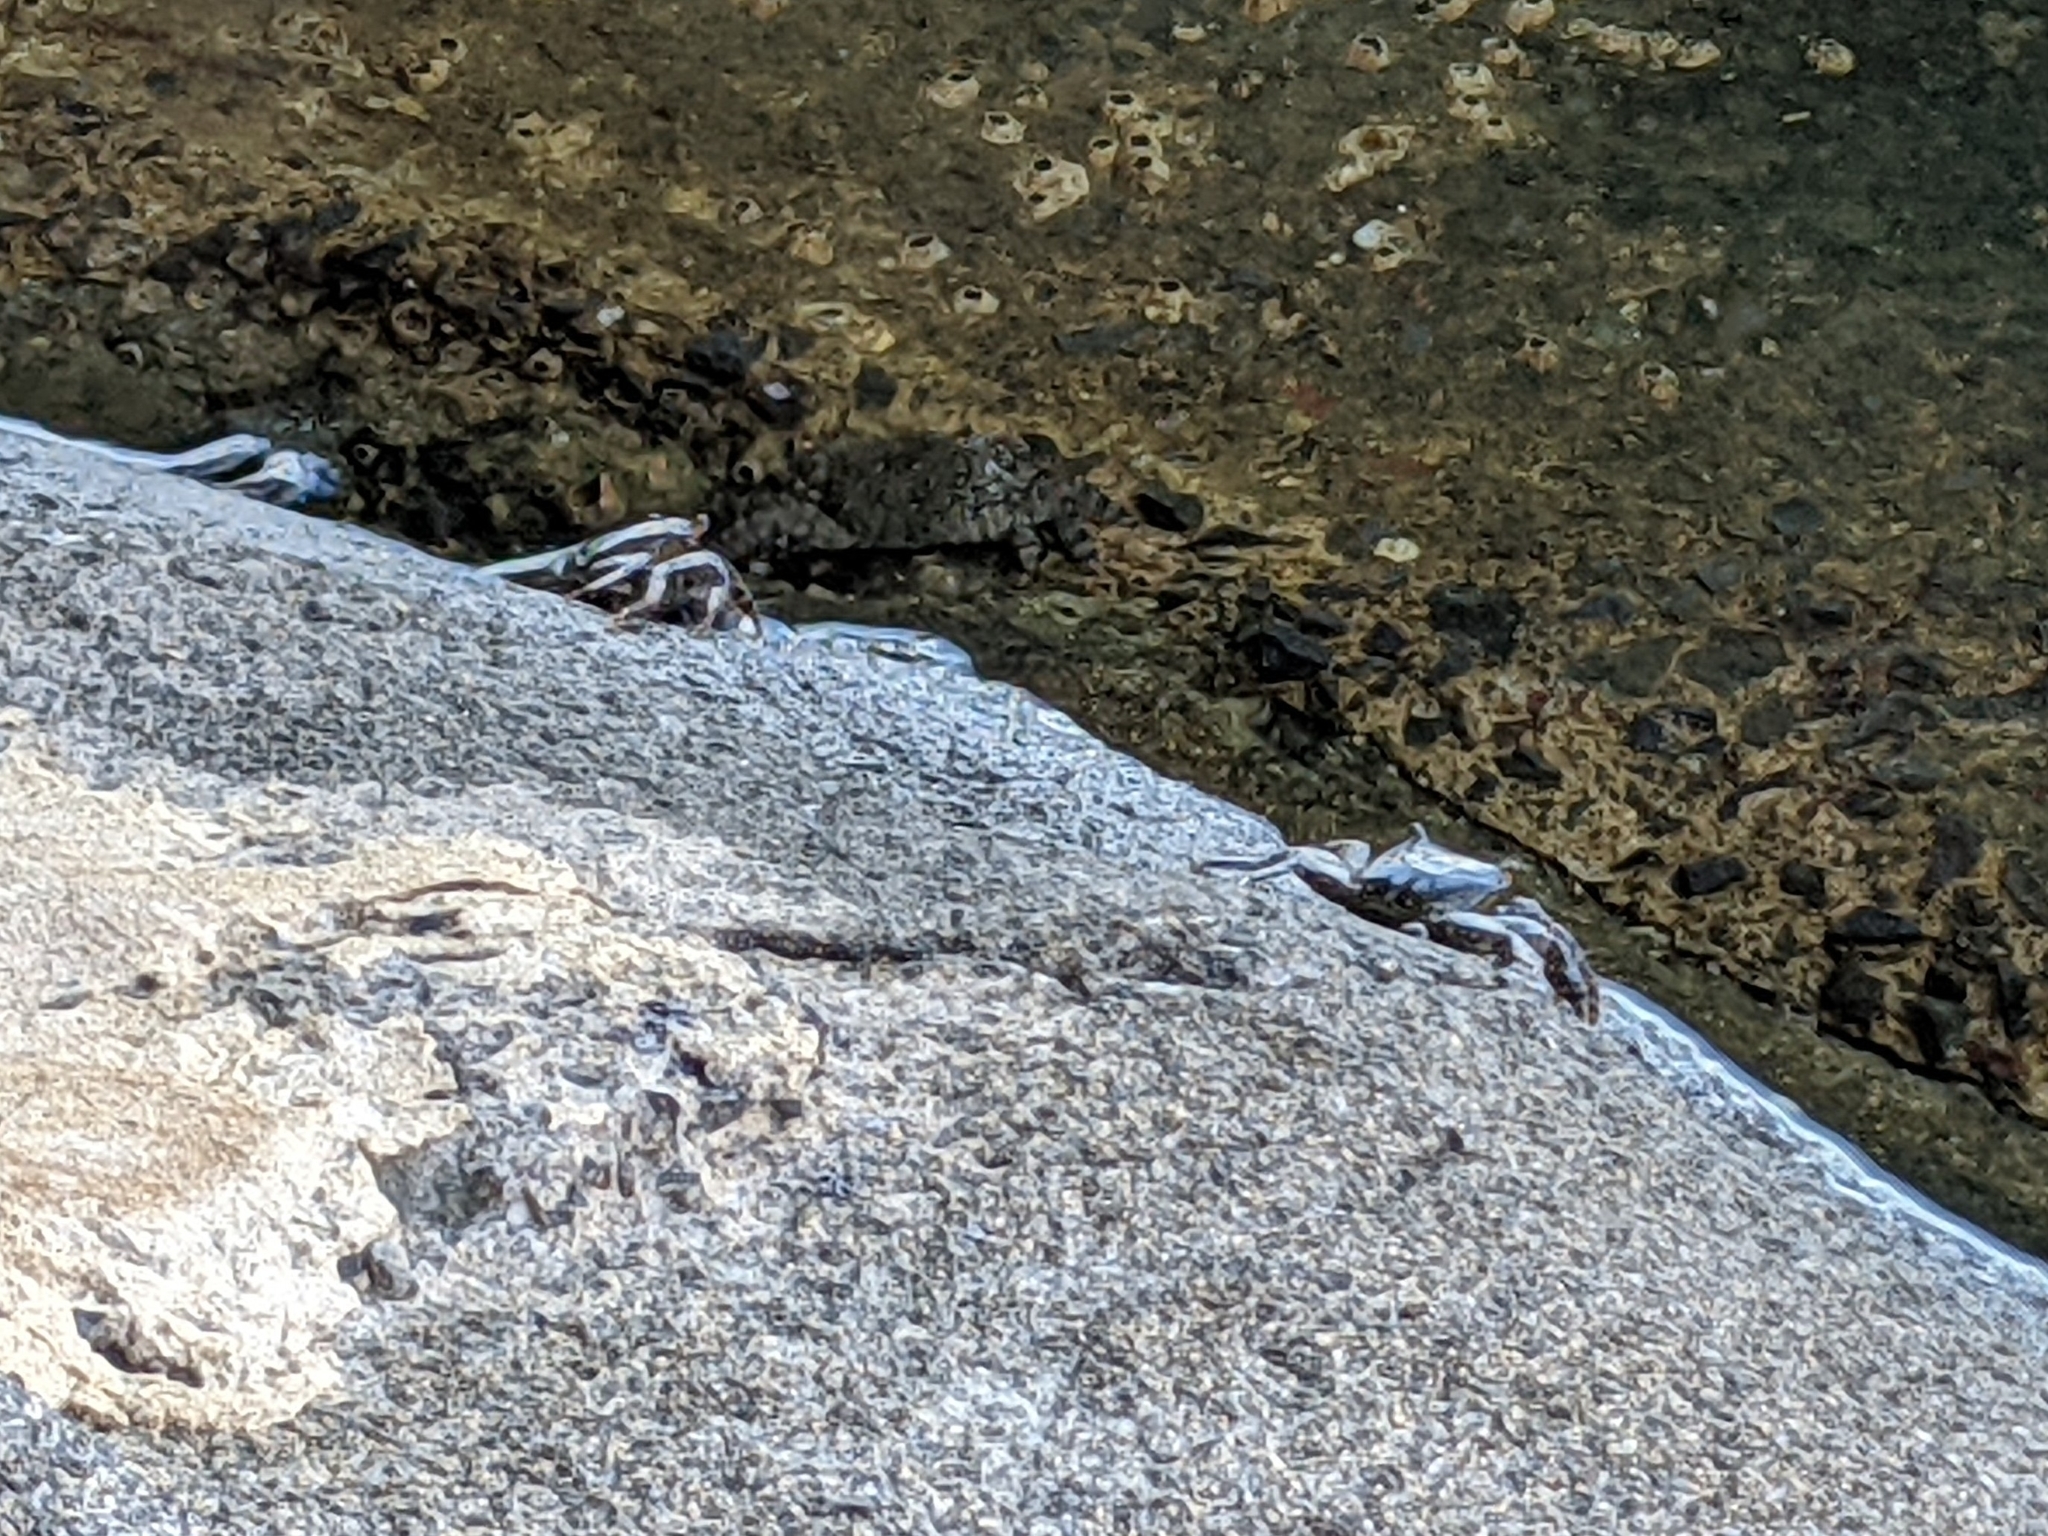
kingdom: Animalia
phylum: Arthropoda
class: Malacostraca
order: Decapoda
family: Grapsidae
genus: Grapsus
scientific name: Grapsus tenuicrustatus
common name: Natal lightfoot crab
